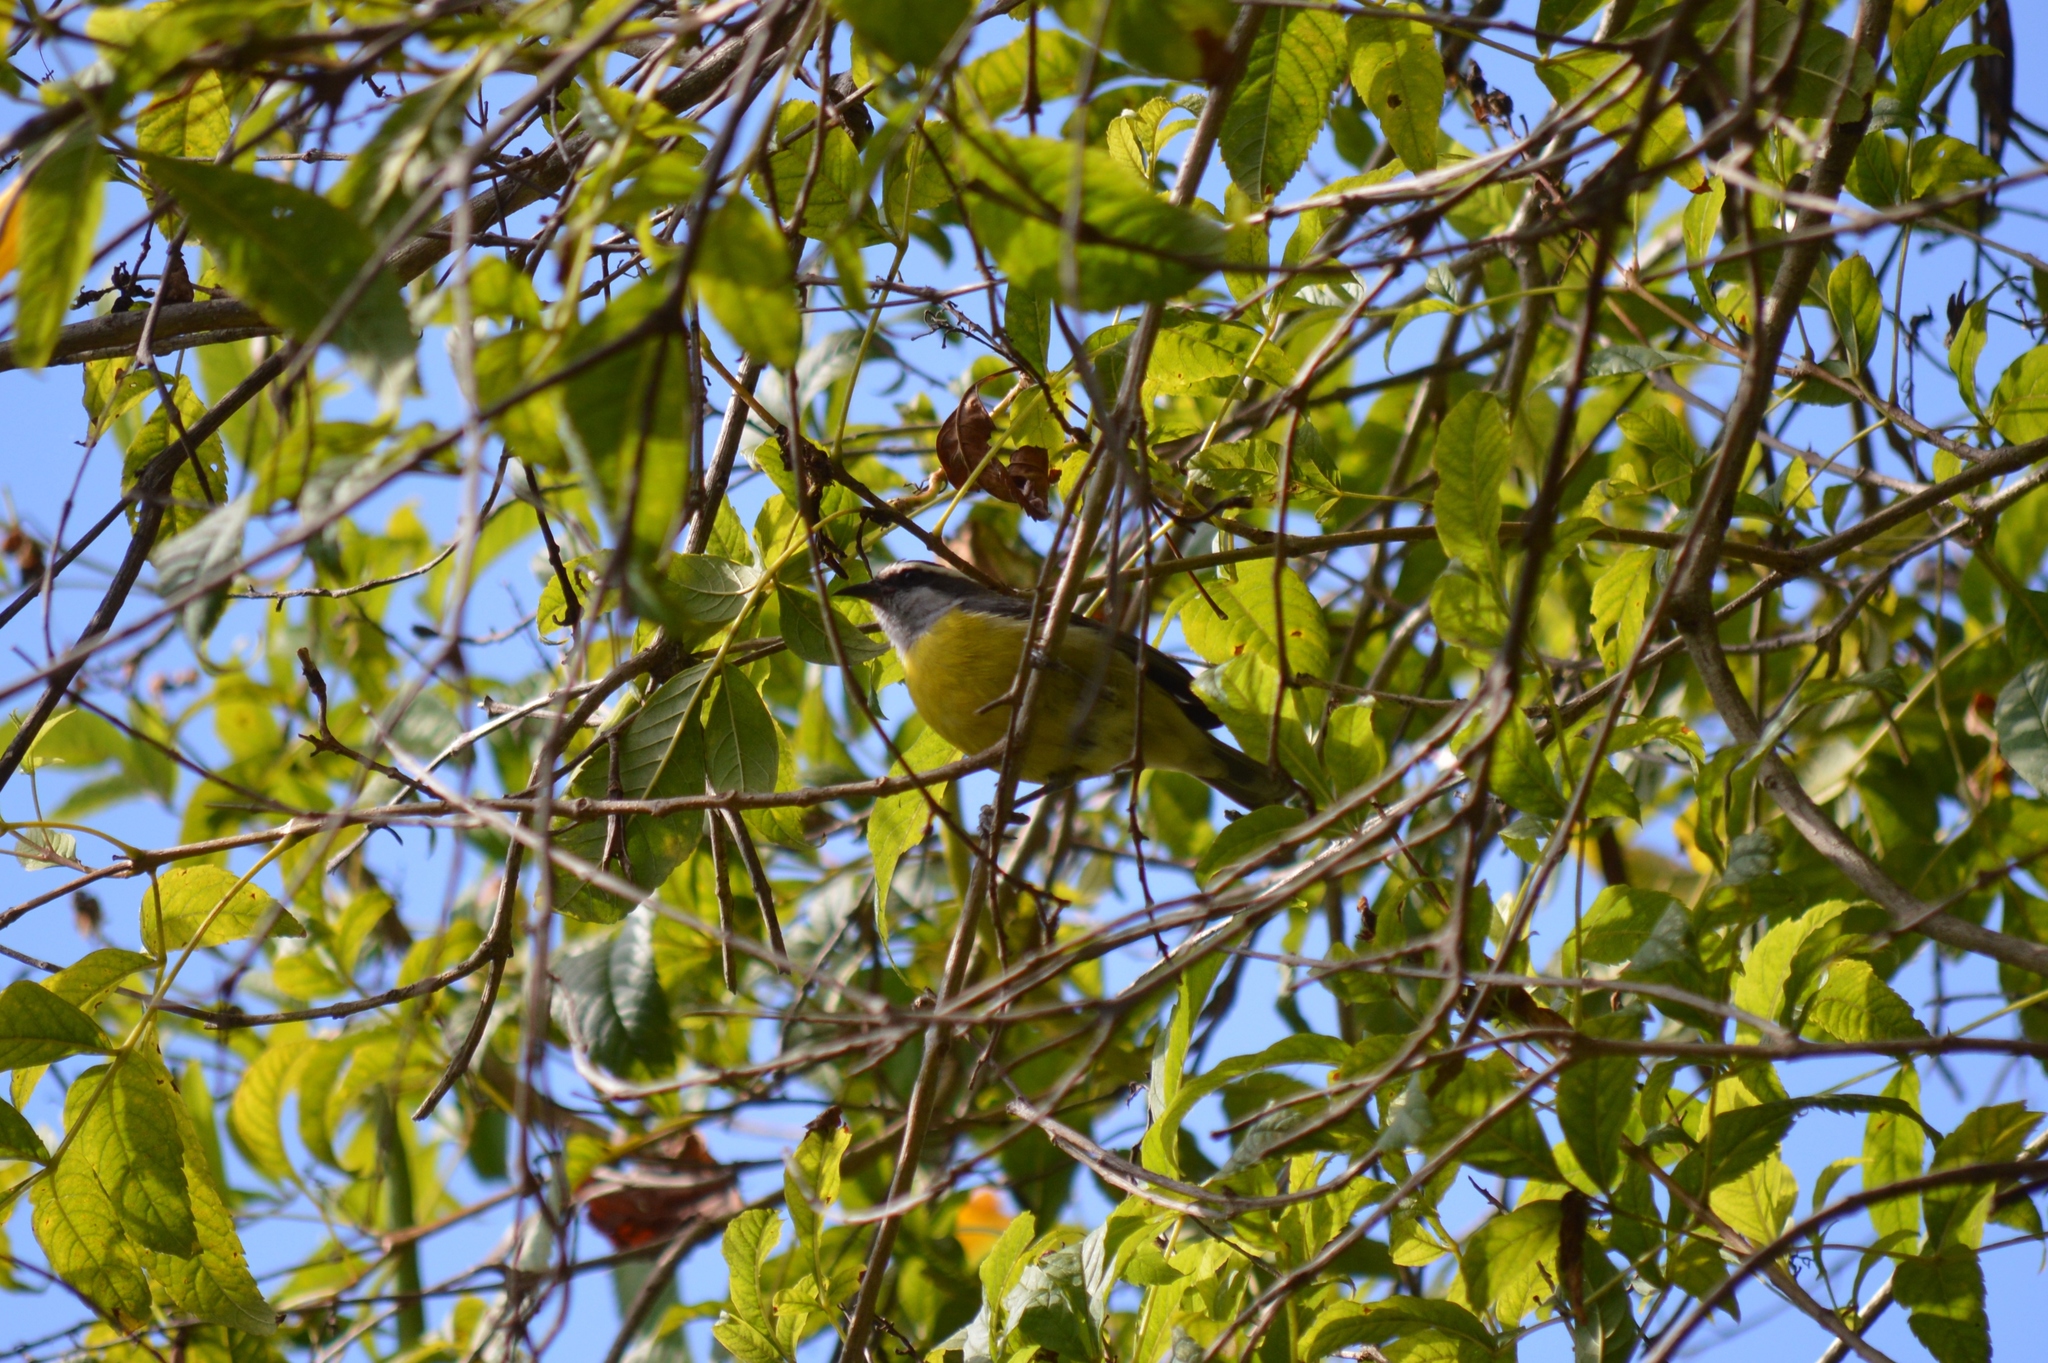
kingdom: Animalia
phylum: Chordata
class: Aves
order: Passeriformes
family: Thraupidae
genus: Coereba
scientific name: Coereba flaveola
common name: Bananaquit
